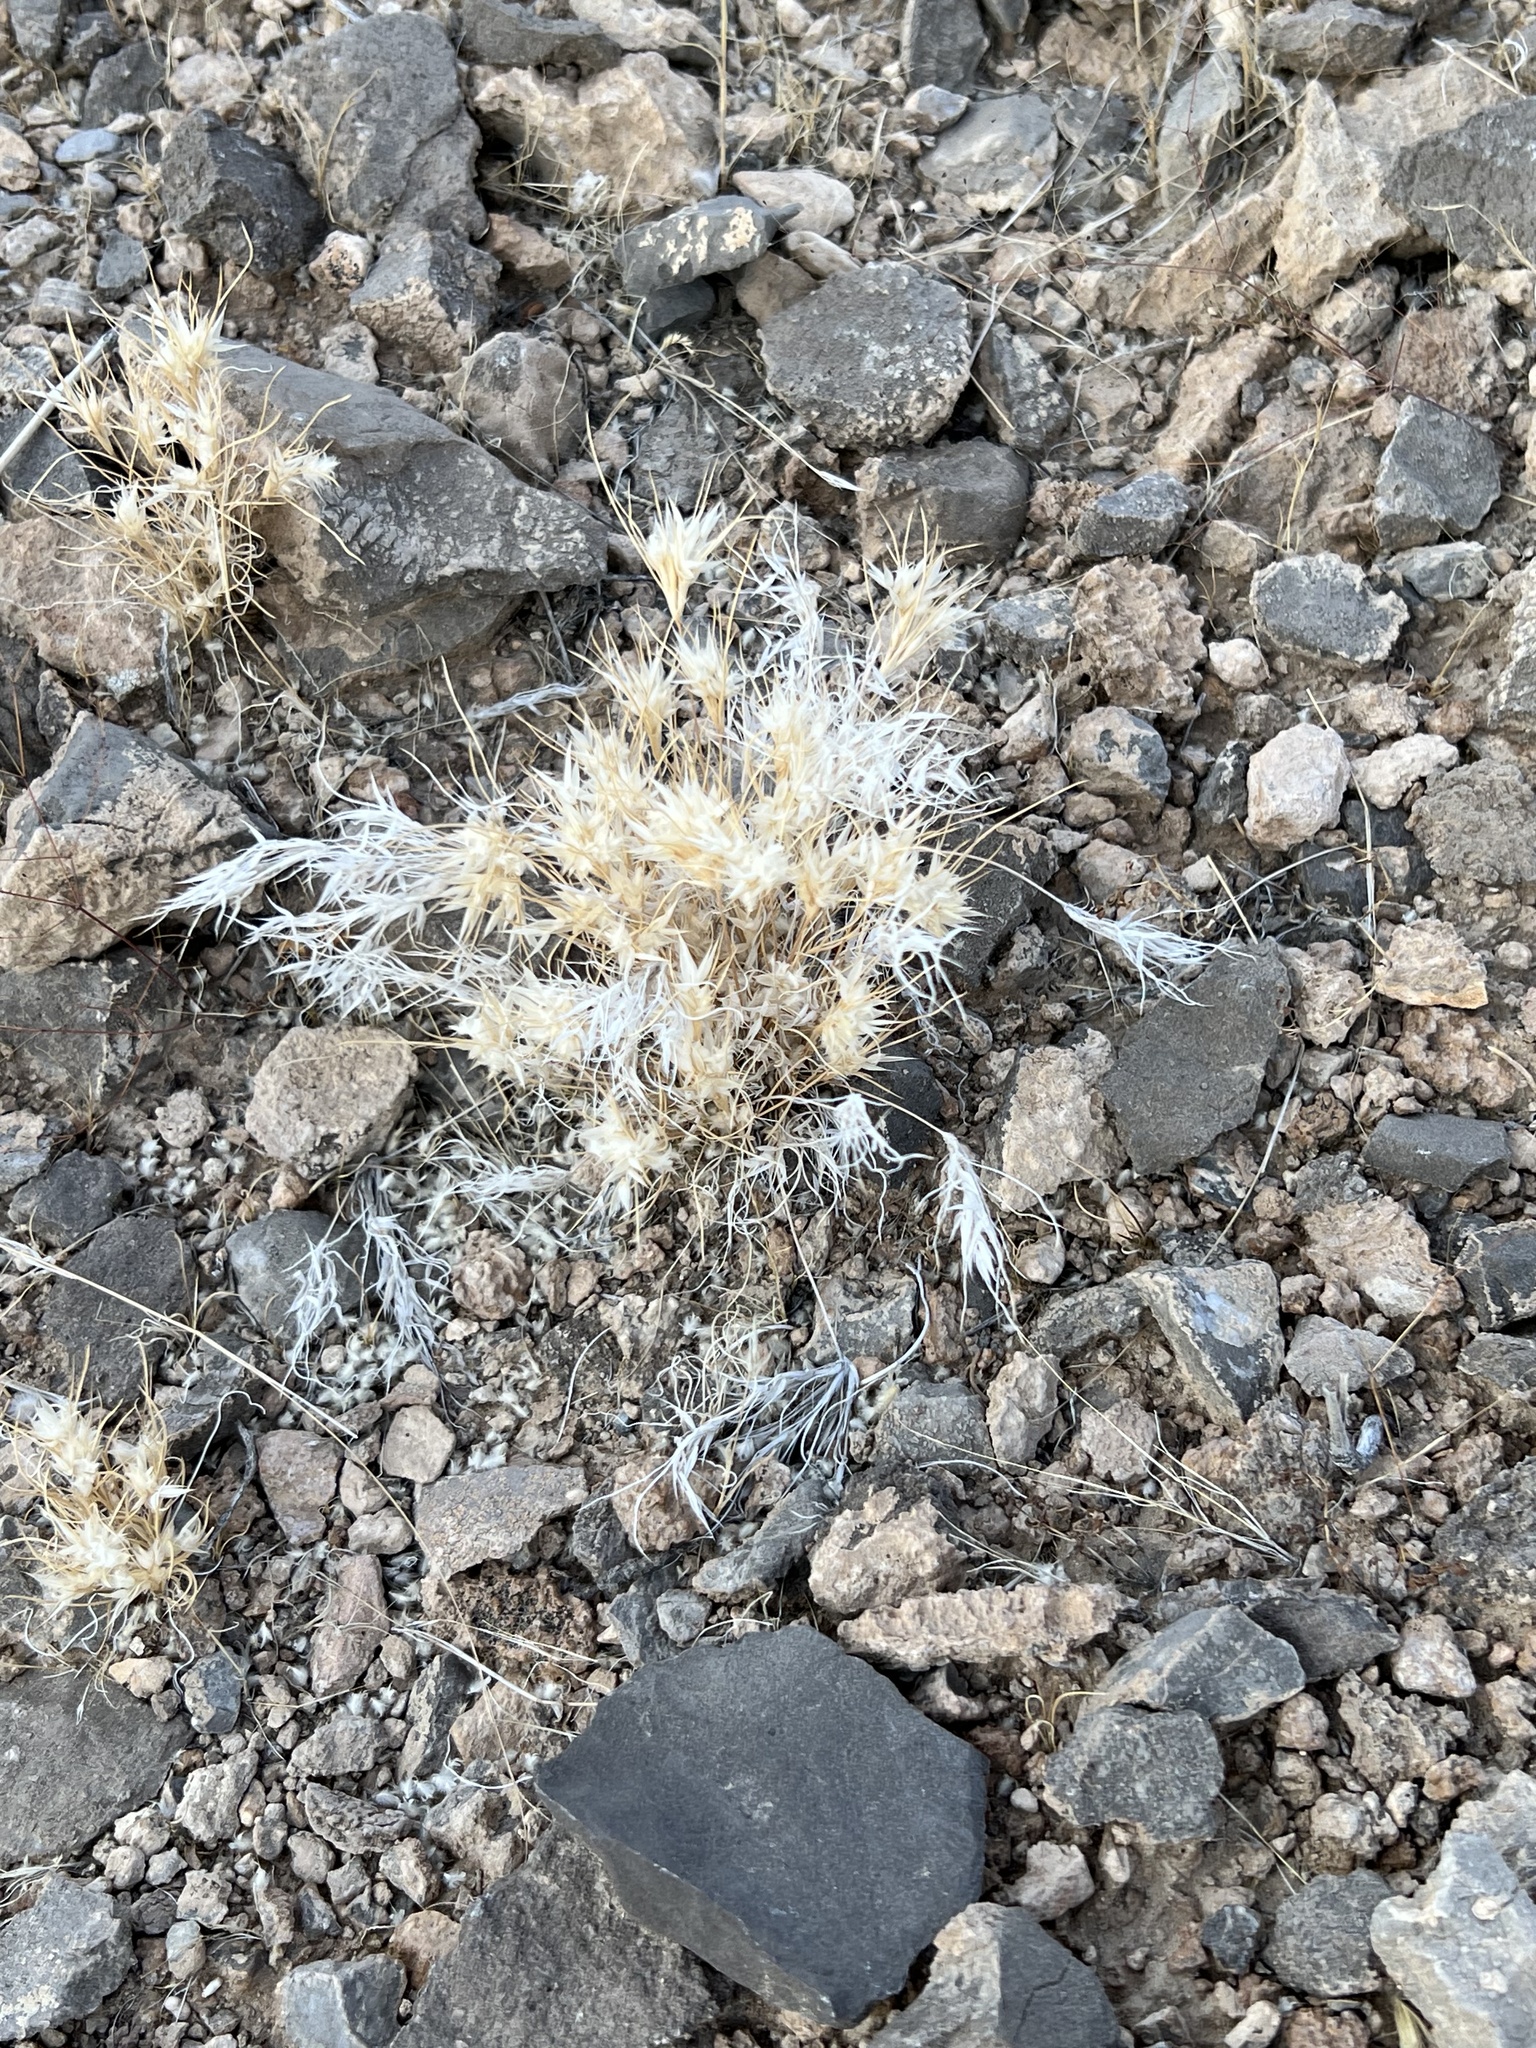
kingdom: Plantae
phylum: Tracheophyta
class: Liliopsida
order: Poales
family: Poaceae
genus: Dasyochloa
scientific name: Dasyochloa pulchella
